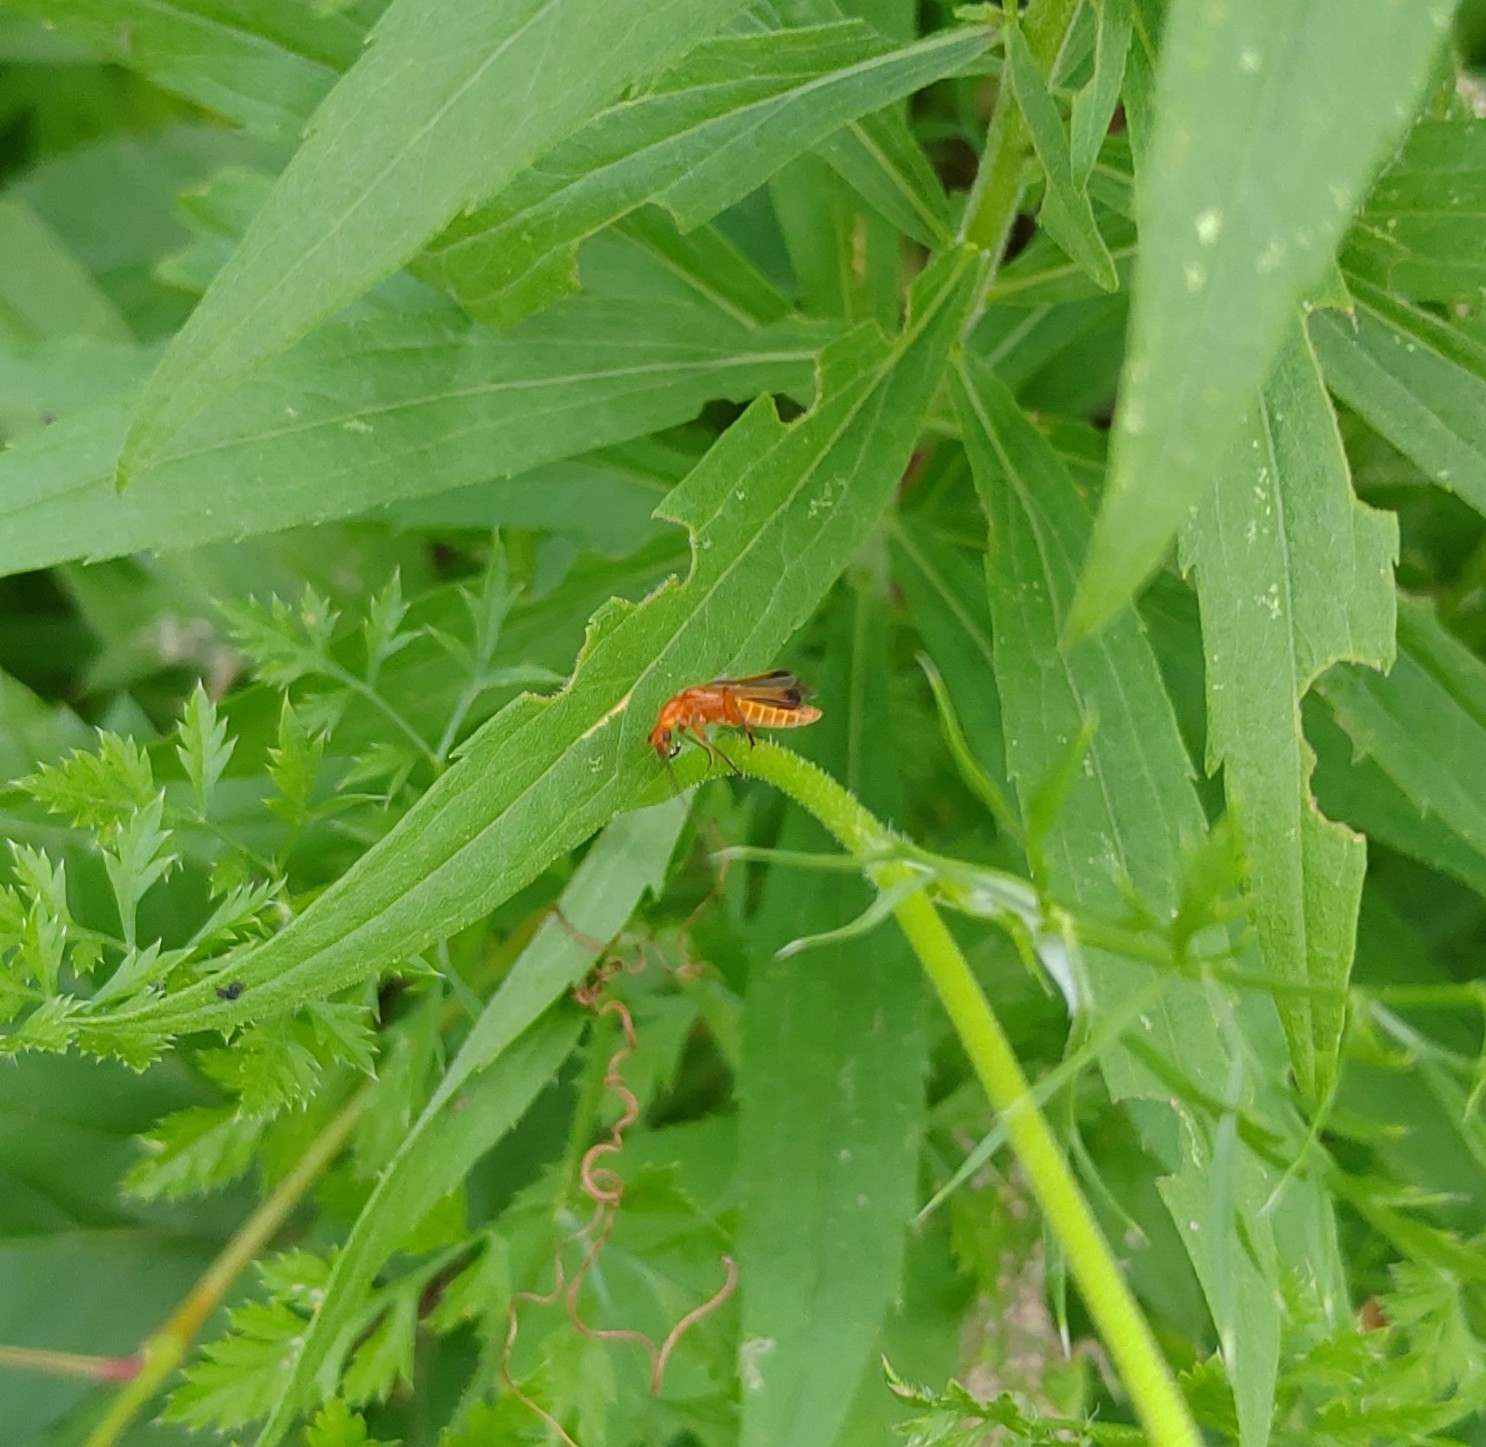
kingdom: Animalia
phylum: Arthropoda
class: Insecta
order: Coleoptera
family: Cantharidae
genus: Rhagonycha
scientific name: Rhagonycha fulva
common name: Common red soldier beetle
